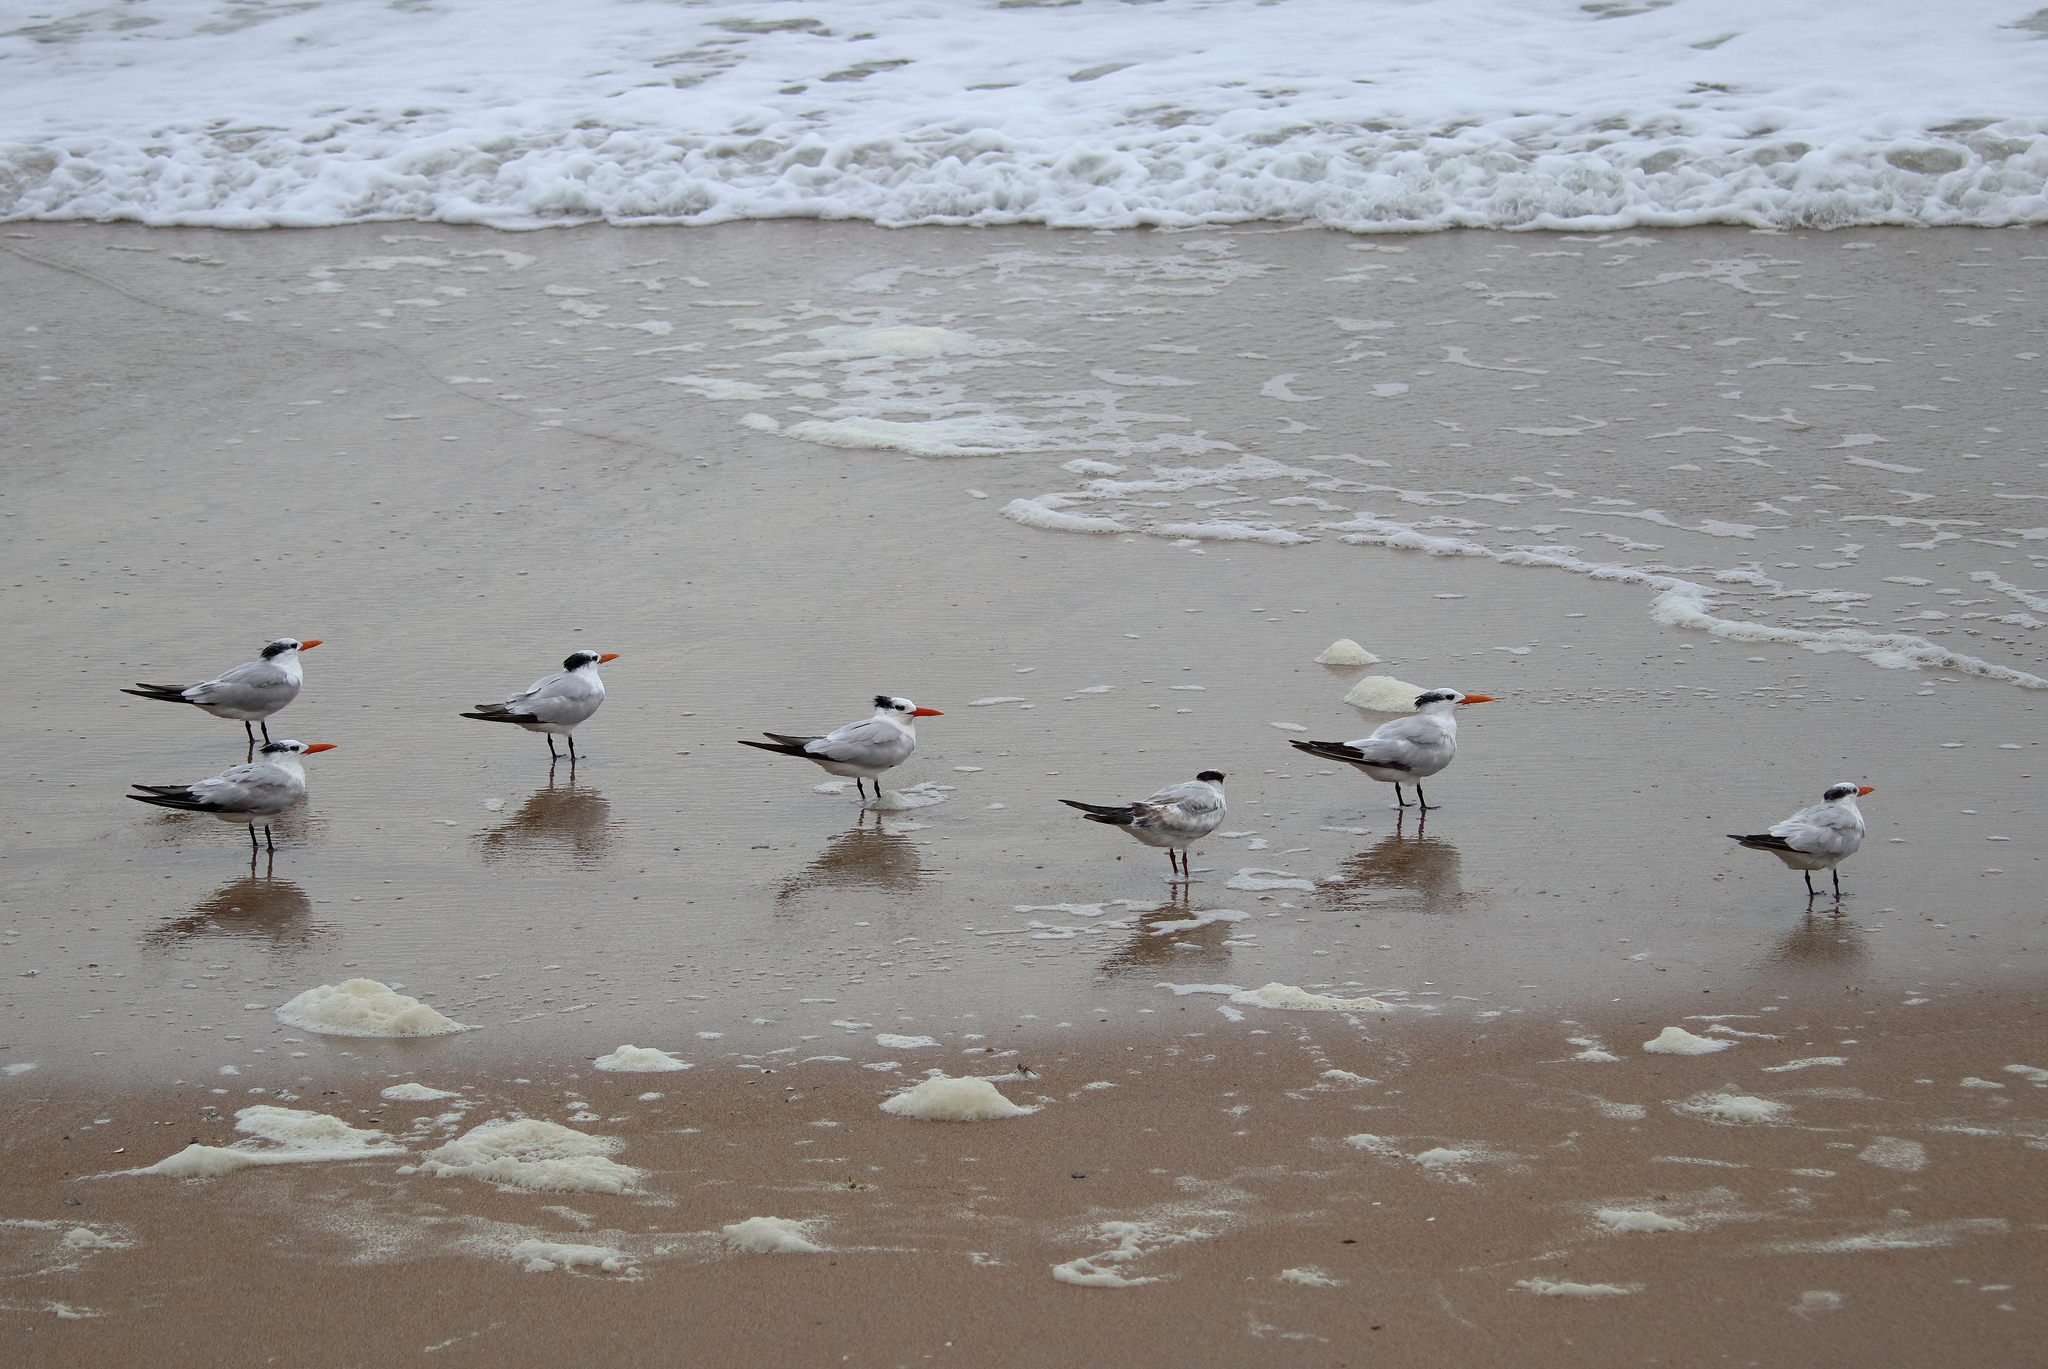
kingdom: Animalia
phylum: Chordata
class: Aves
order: Charadriiformes
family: Laridae
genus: Thalasseus
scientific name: Thalasseus maximus
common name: Royal tern
